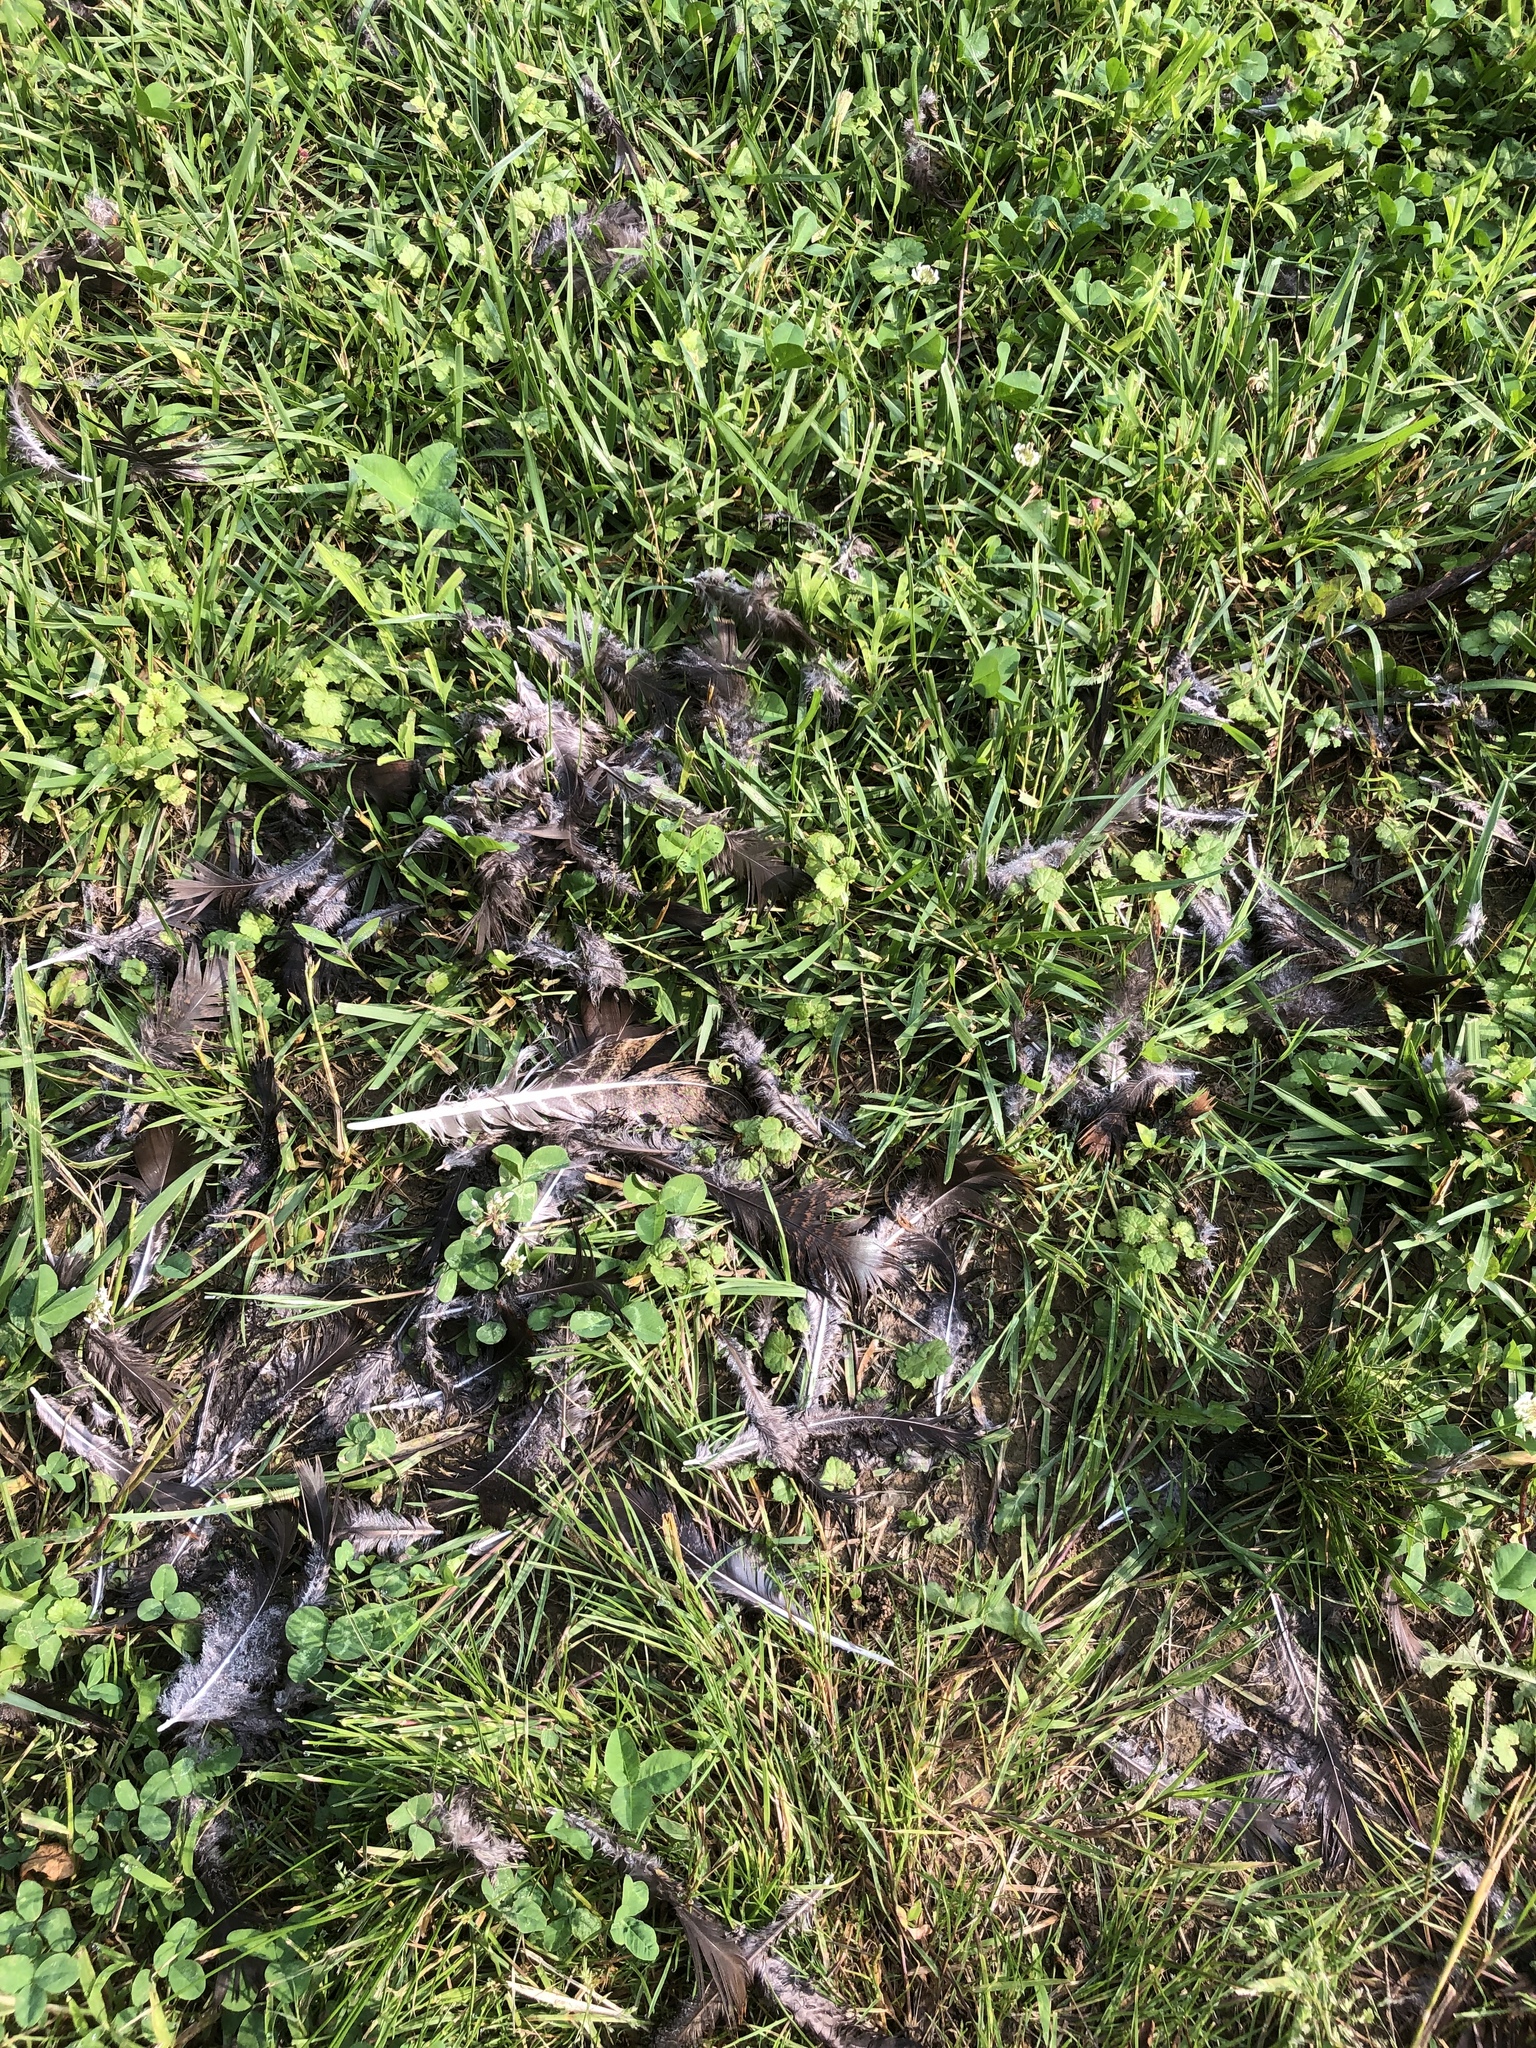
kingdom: Animalia
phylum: Chordata
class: Aves
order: Galliformes
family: Phasianidae
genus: Meleagris
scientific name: Meleagris gallopavo
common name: Wild turkey
